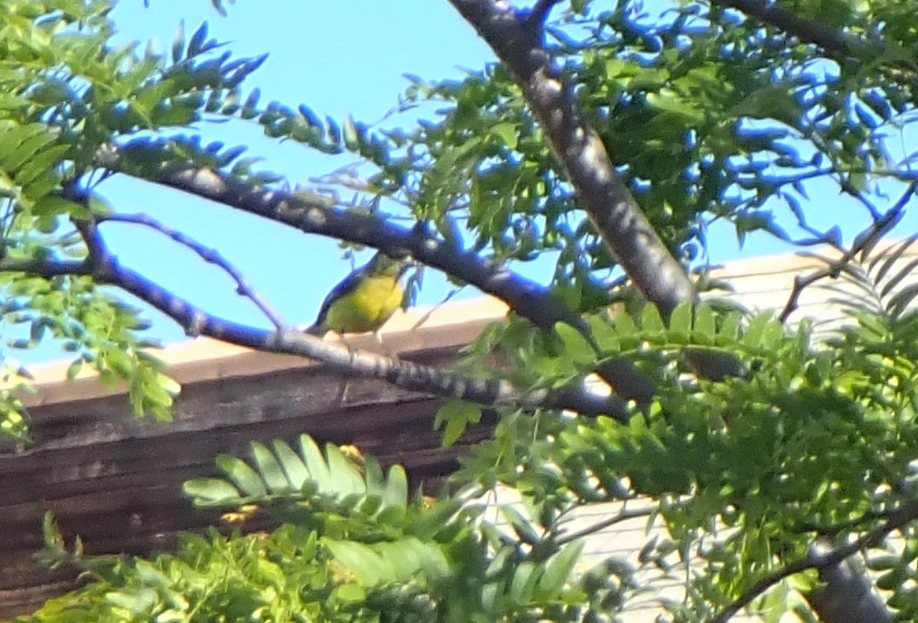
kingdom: Animalia
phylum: Chordata
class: Aves
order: Passeriformes
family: Fringillidae
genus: Spinus
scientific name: Spinus psaltria
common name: Lesser goldfinch
